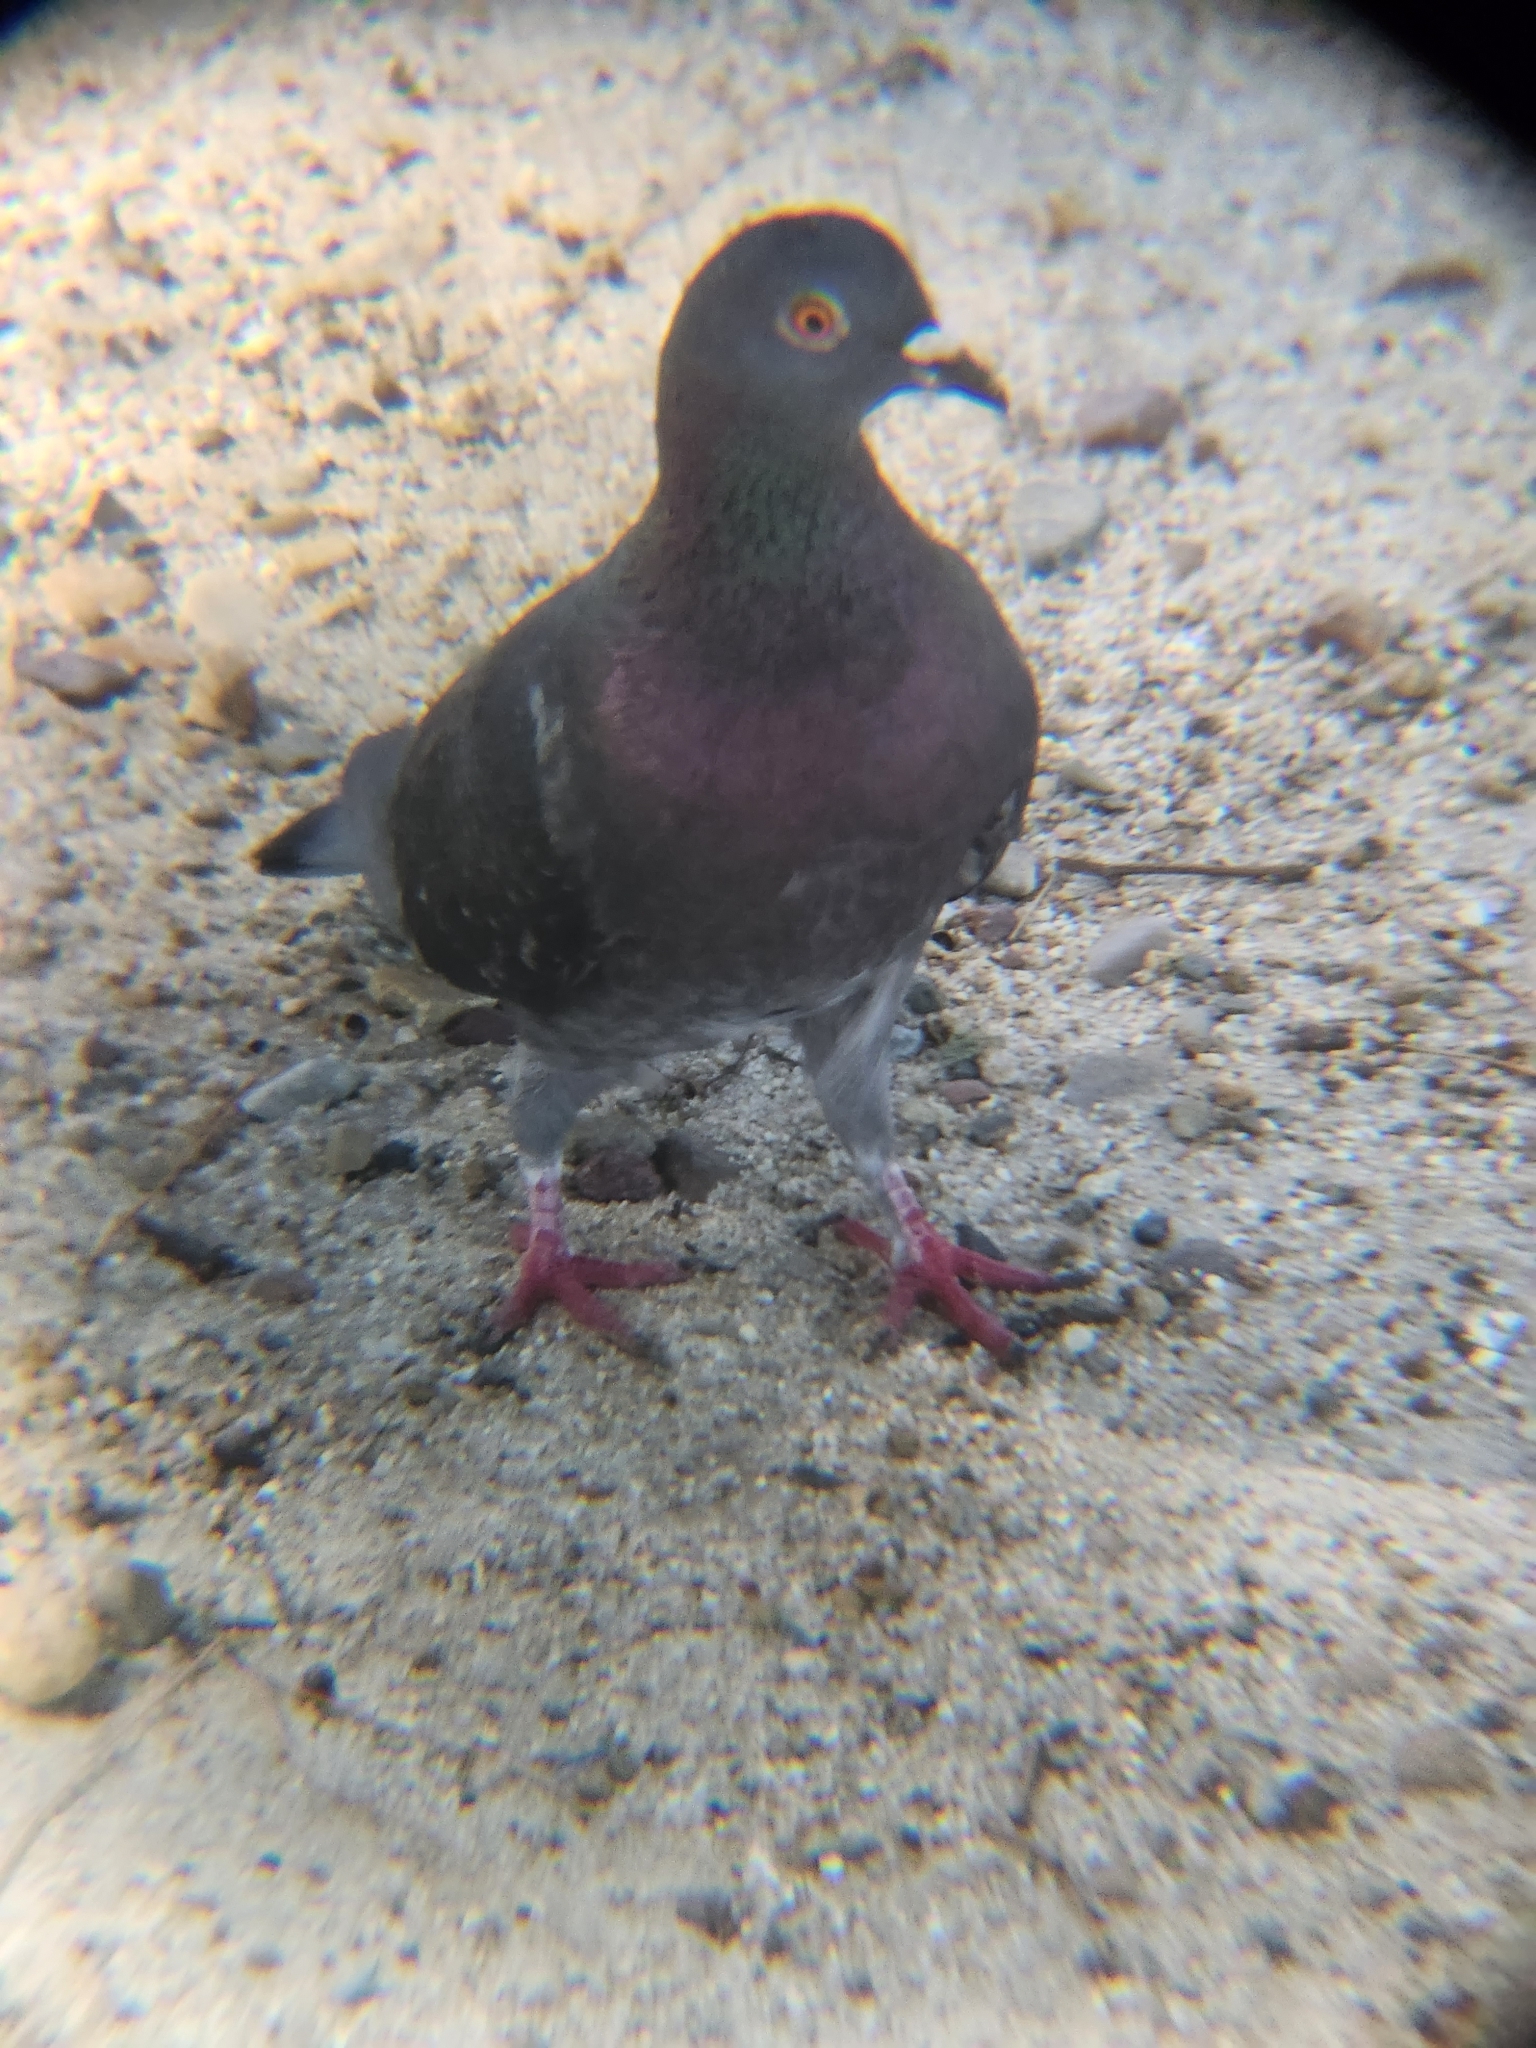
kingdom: Animalia
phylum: Chordata
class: Aves
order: Columbiformes
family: Columbidae
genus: Columba
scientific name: Columba livia
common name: Rock pigeon
